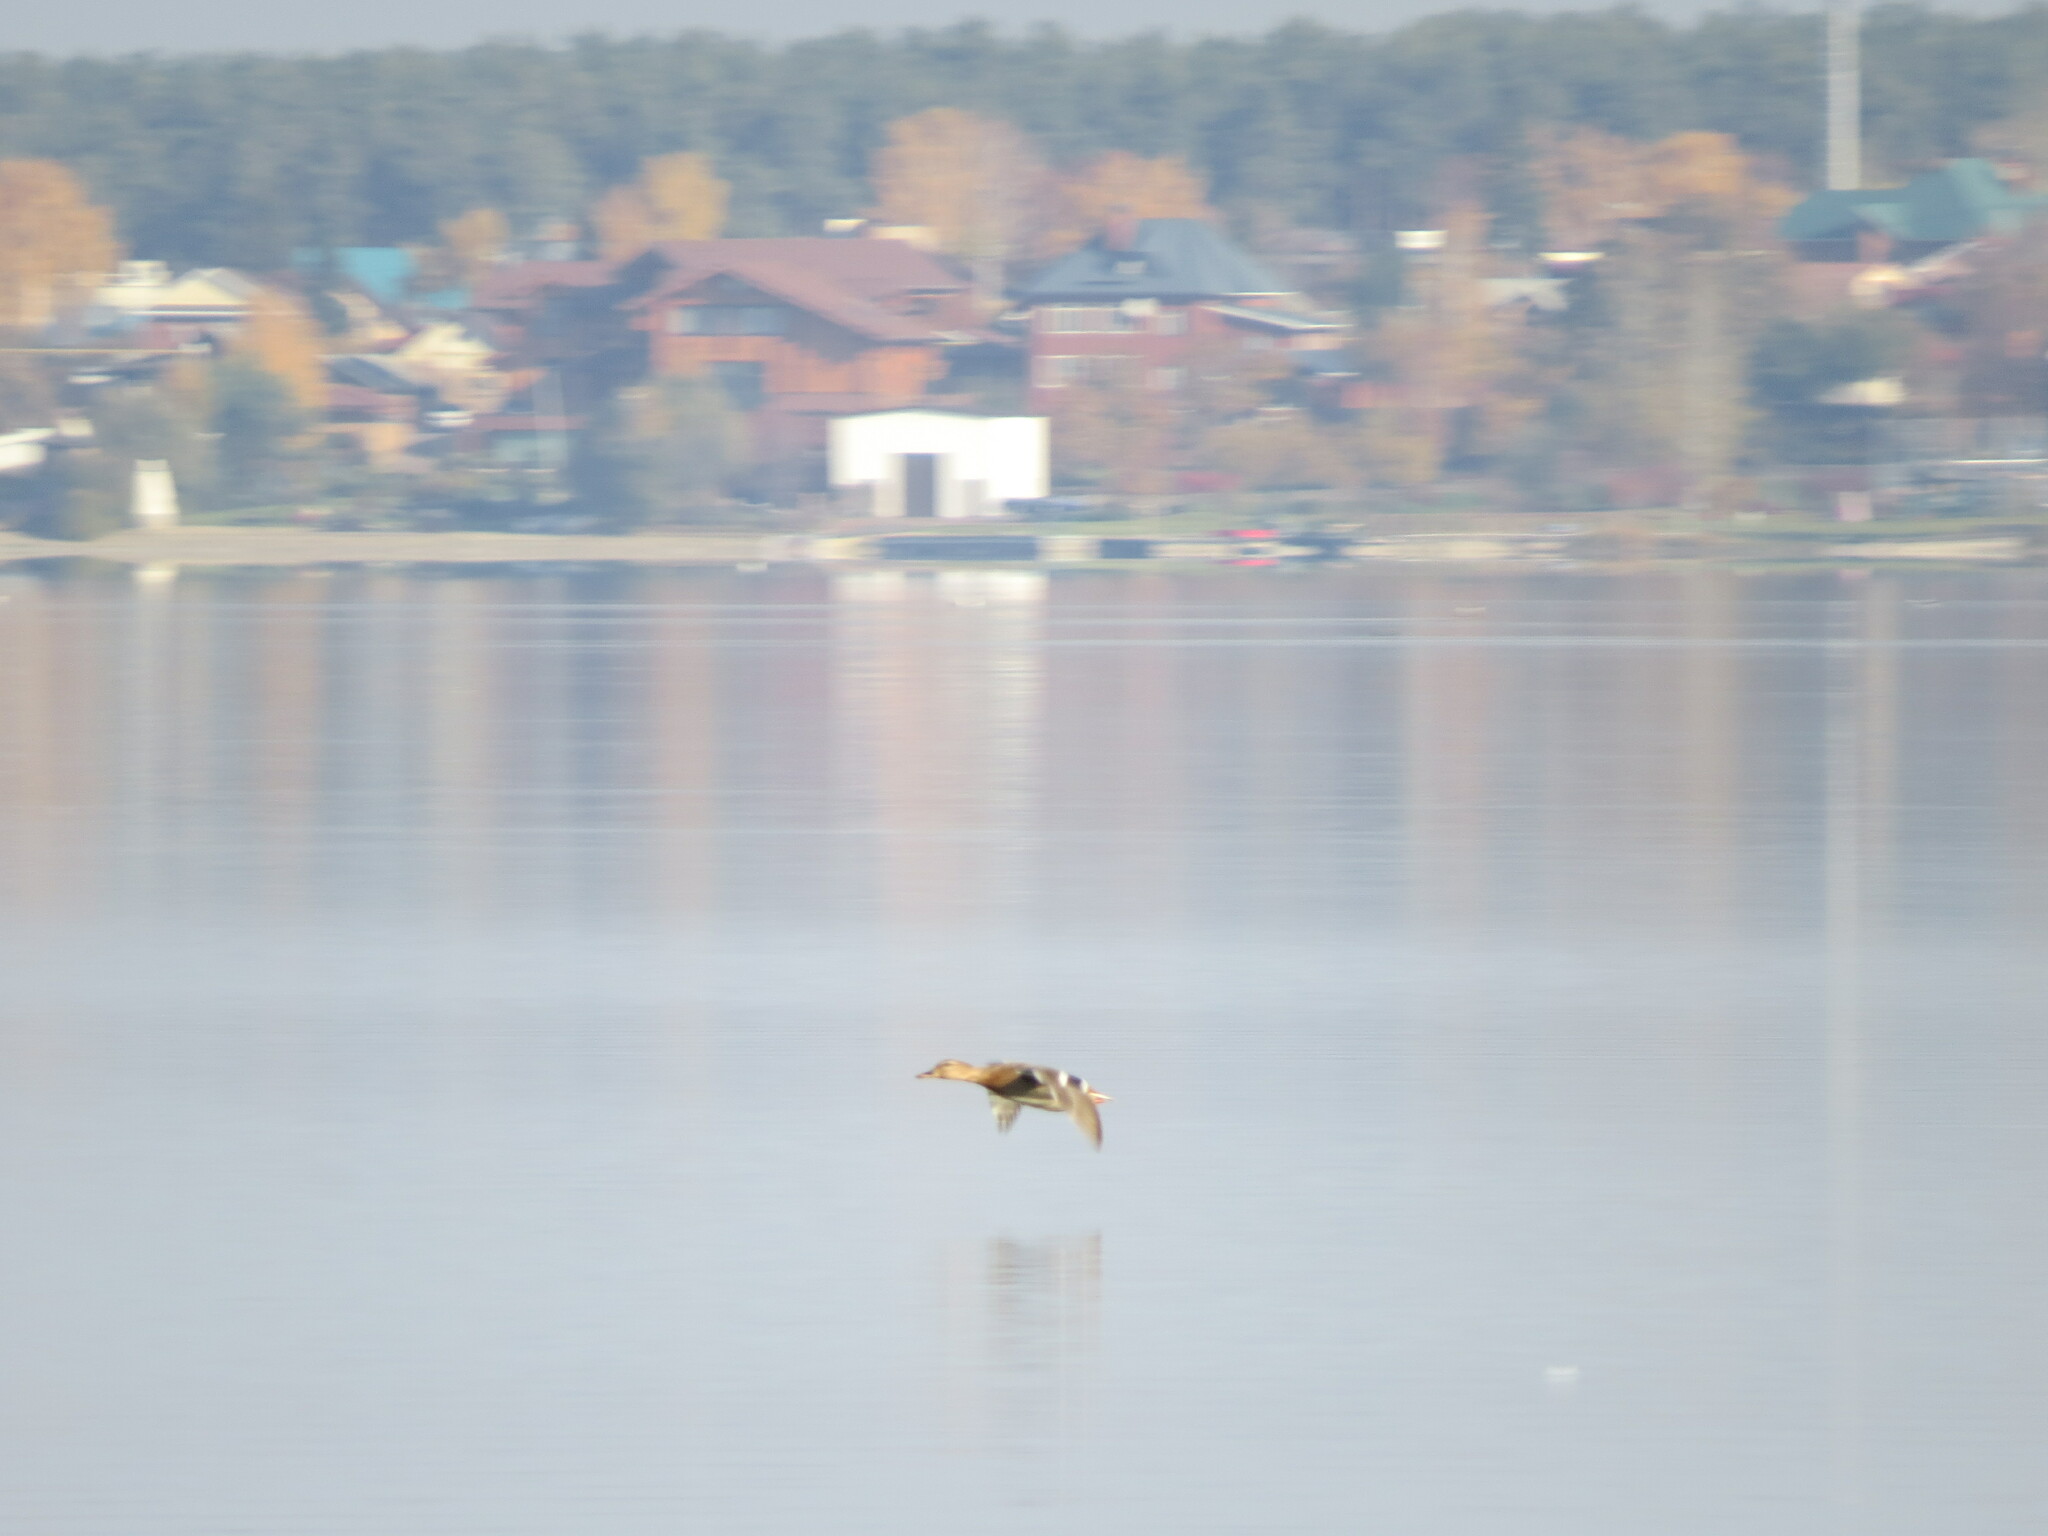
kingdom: Animalia
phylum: Chordata
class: Aves
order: Anseriformes
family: Anatidae
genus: Anas
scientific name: Anas platyrhynchos
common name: Mallard
